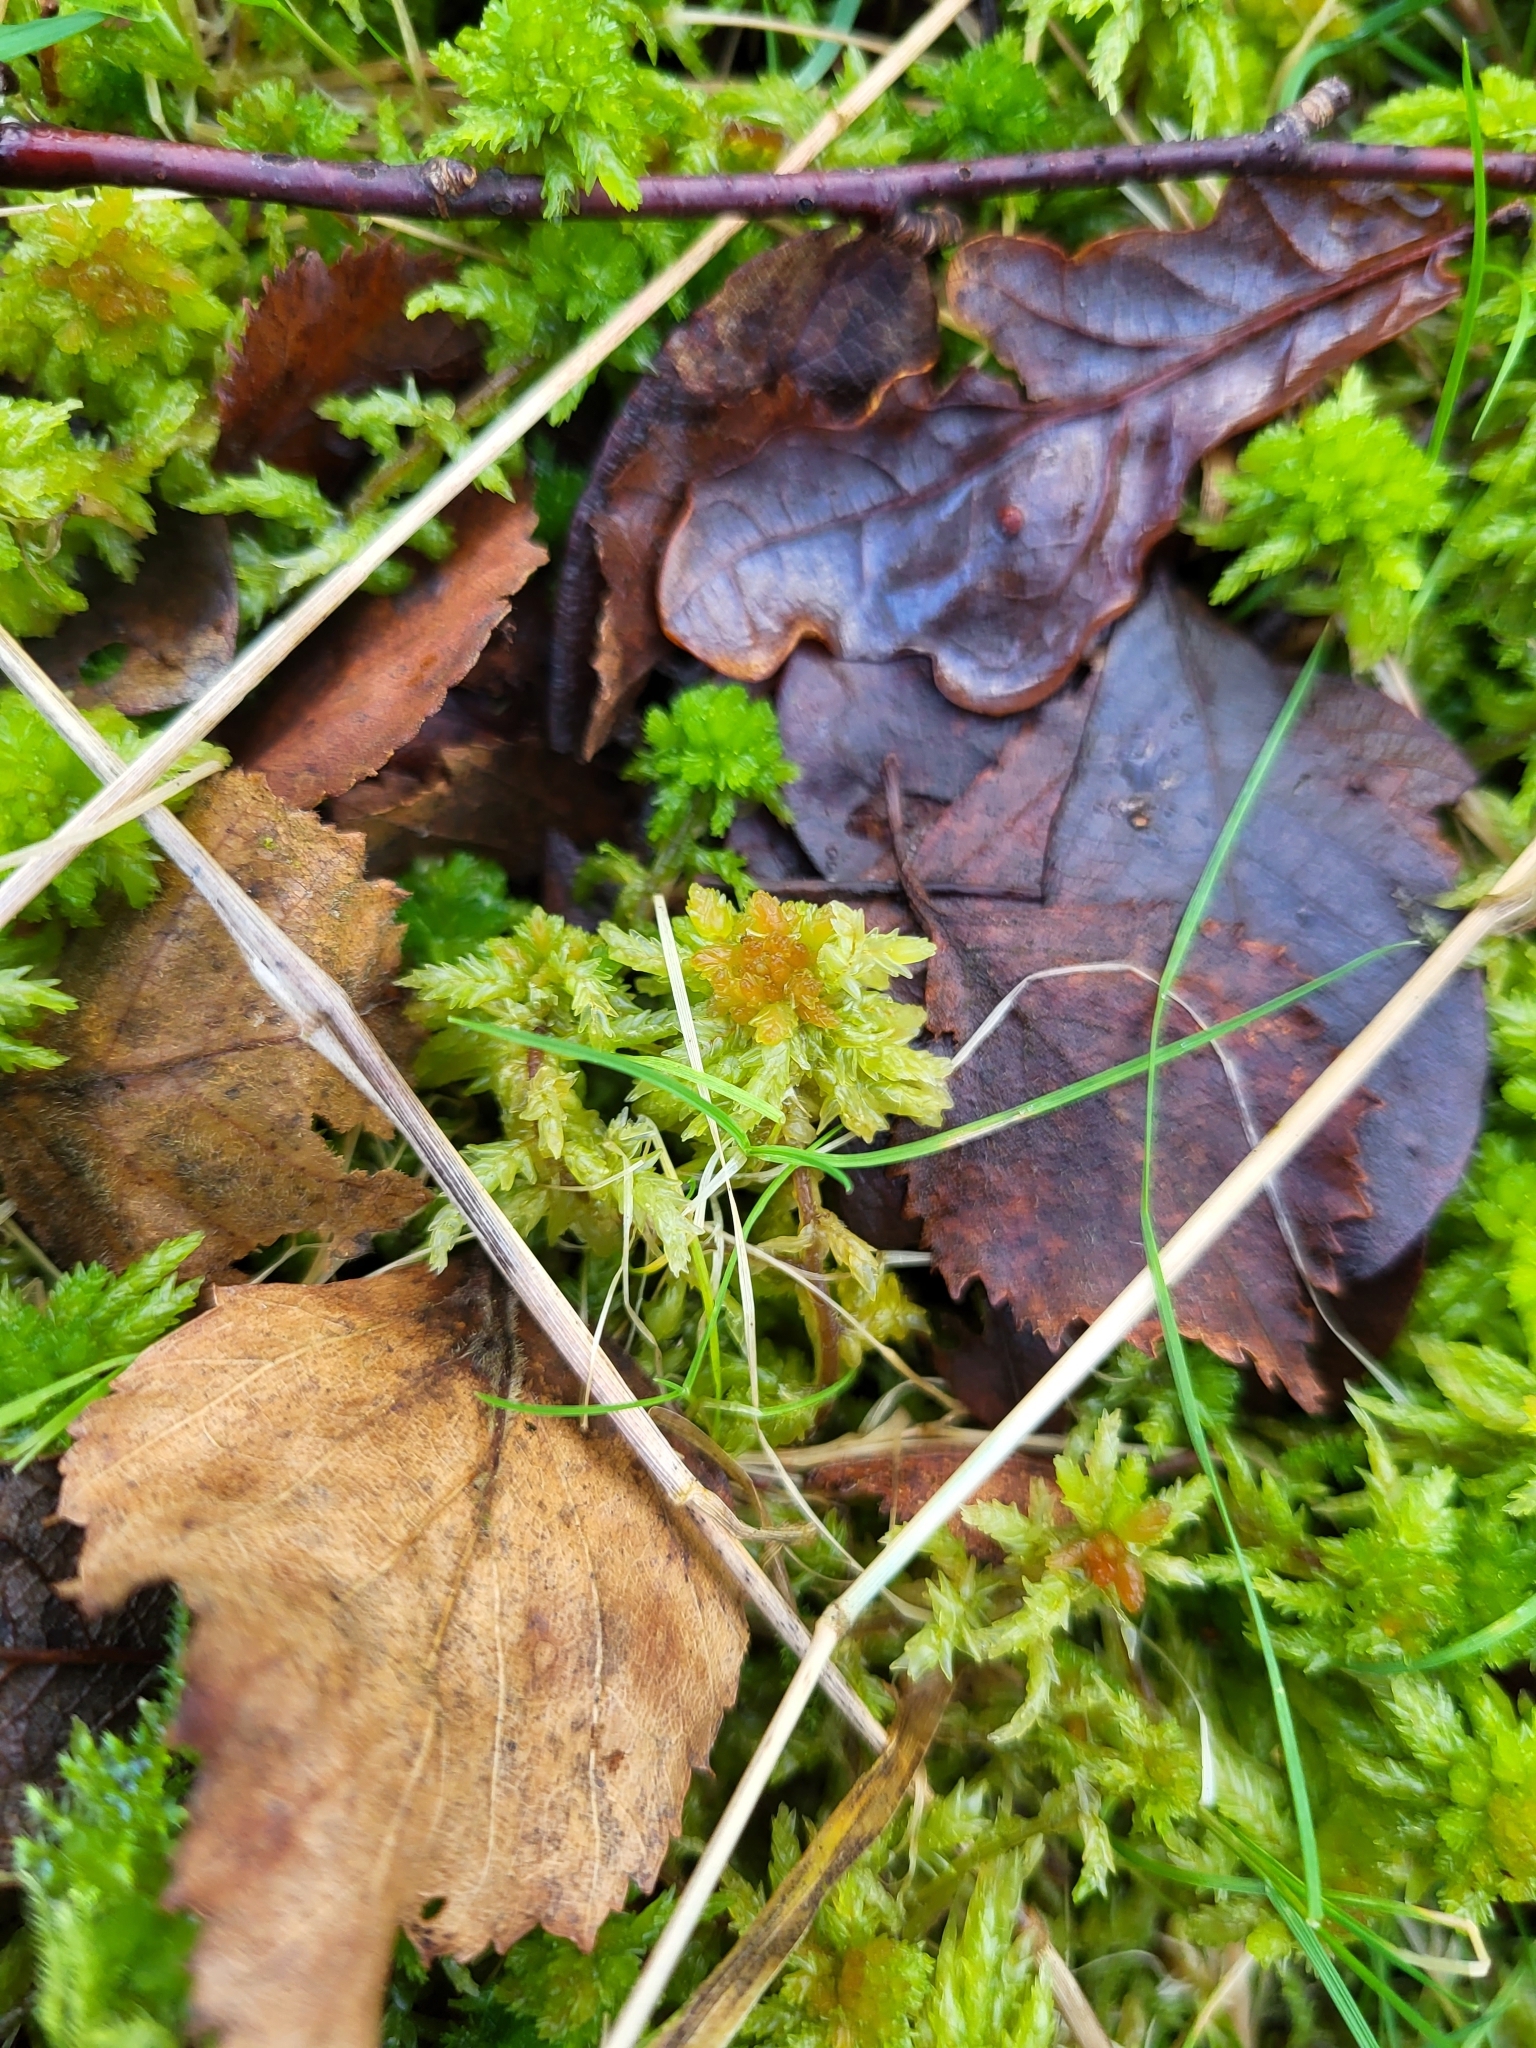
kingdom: Plantae
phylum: Bryophyta
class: Sphagnopsida
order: Sphagnales
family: Sphagnaceae
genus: Sphagnum
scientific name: Sphagnum palustre
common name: Blunt-leaved bog-moss
